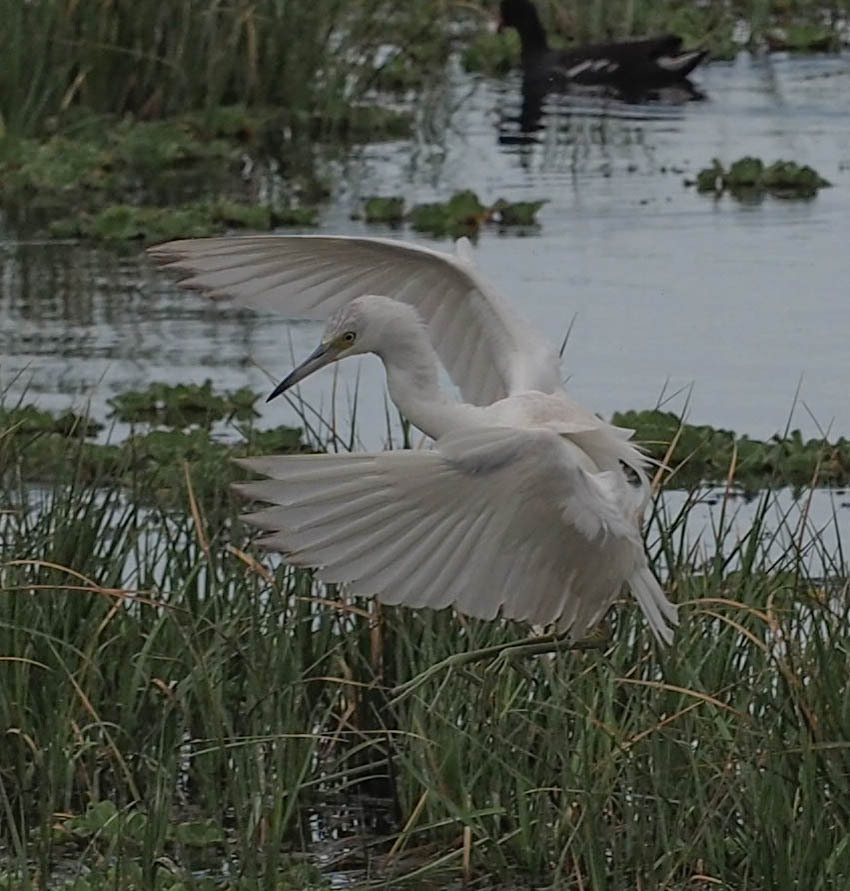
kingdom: Animalia
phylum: Chordata
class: Aves
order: Pelecaniformes
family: Ardeidae
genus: Egretta
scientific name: Egretta caerulea
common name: Little blue heron
